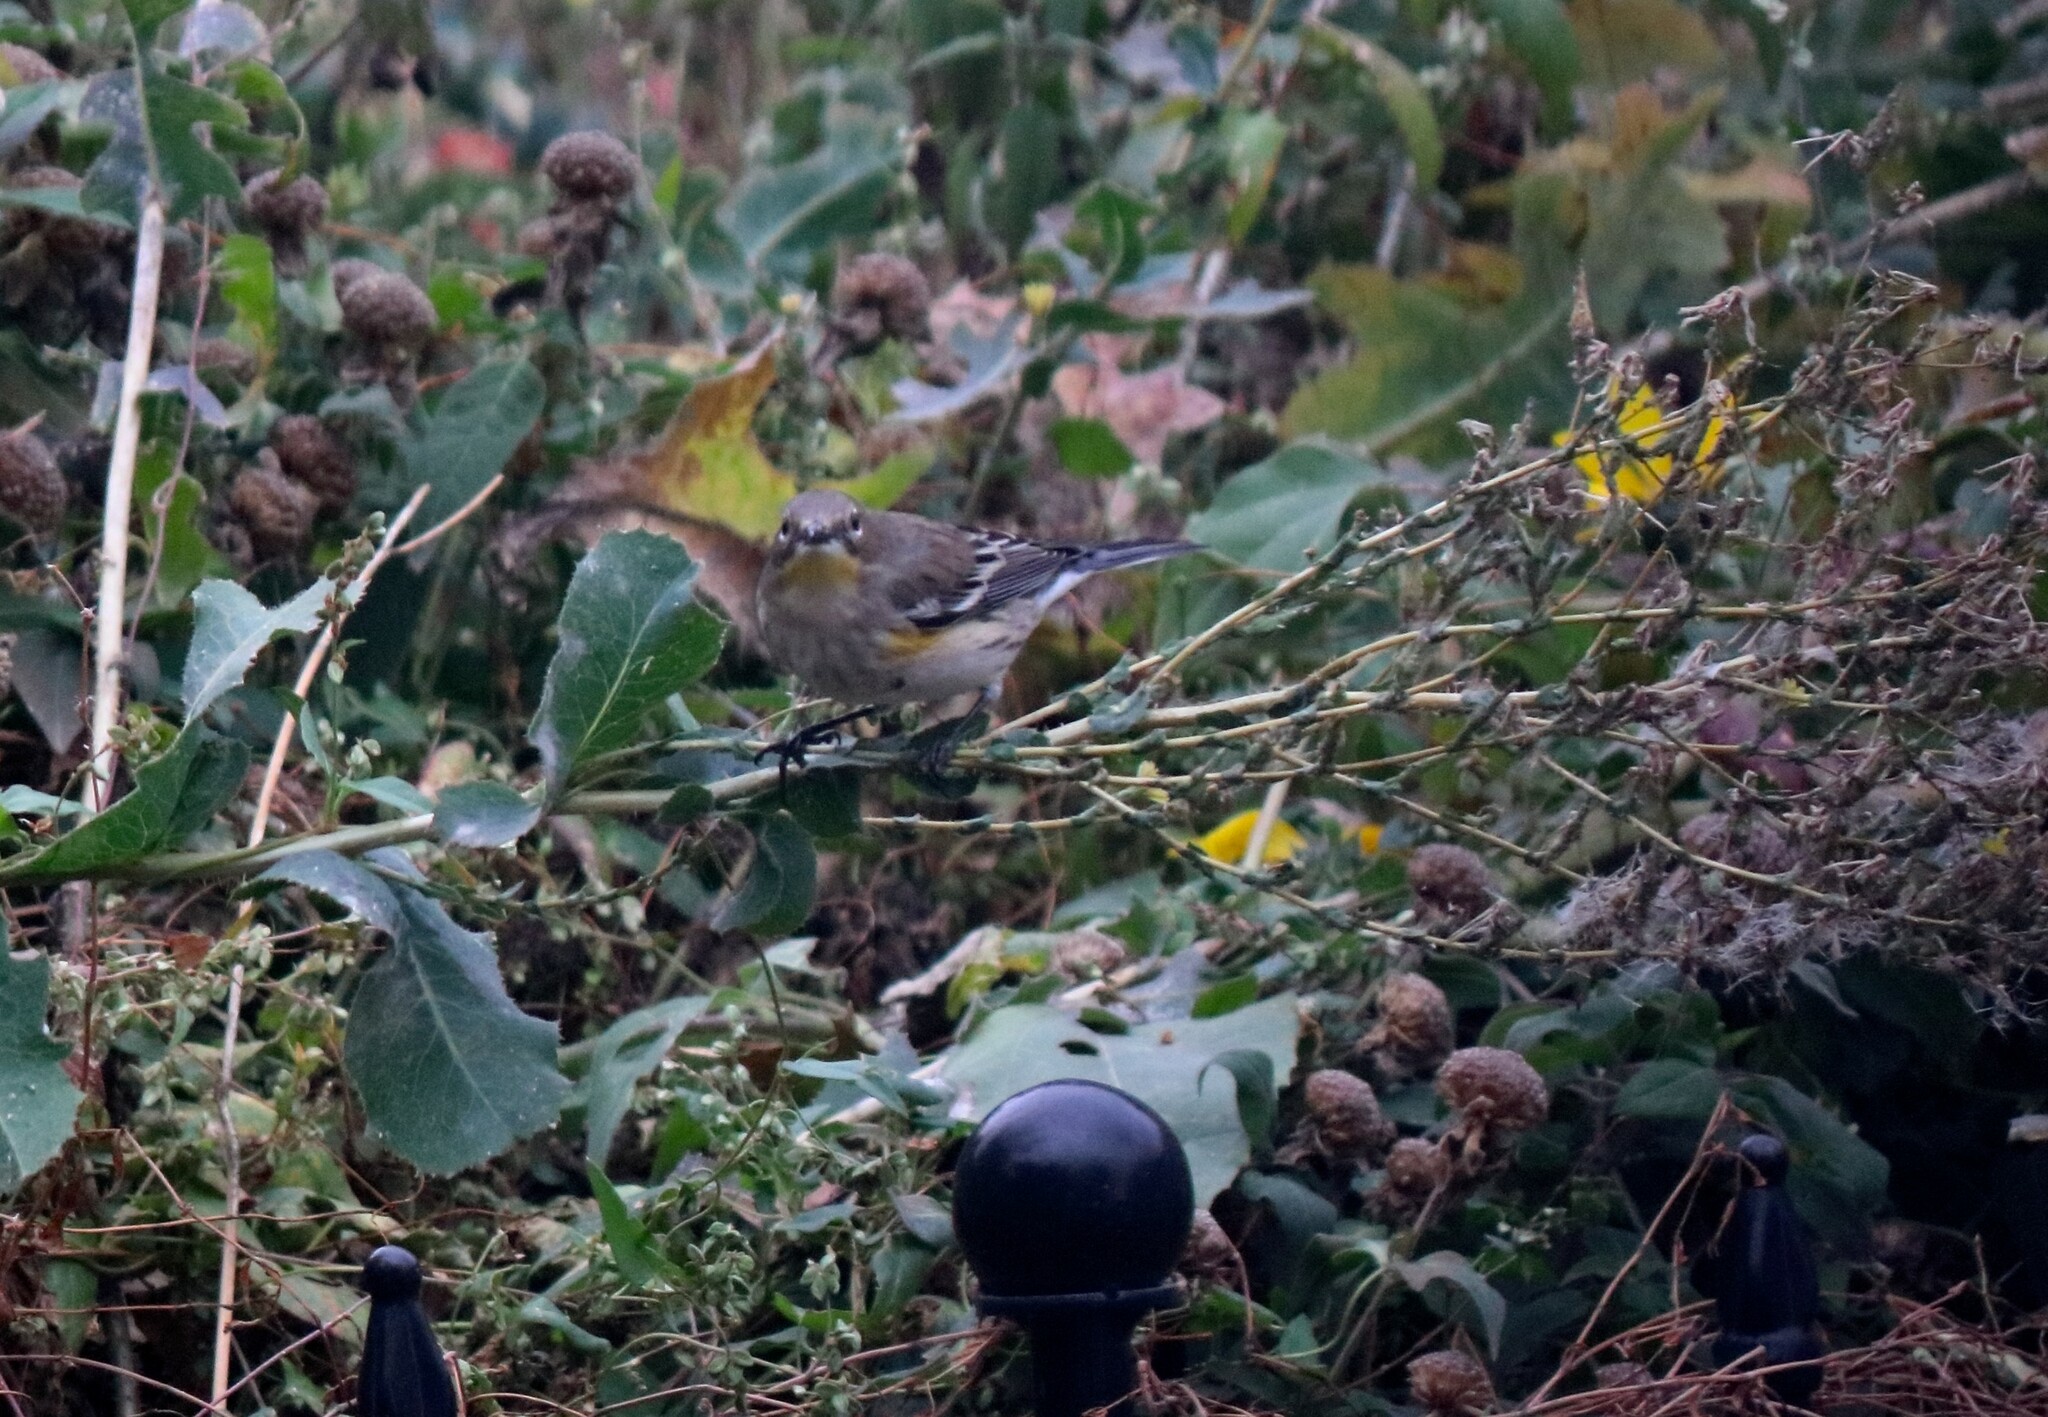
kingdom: Animalia
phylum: Chordata
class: Aves
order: Passeriformes
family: Parulidae
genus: Setophaga
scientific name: Setophaga coronata
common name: Myrtle warbler
